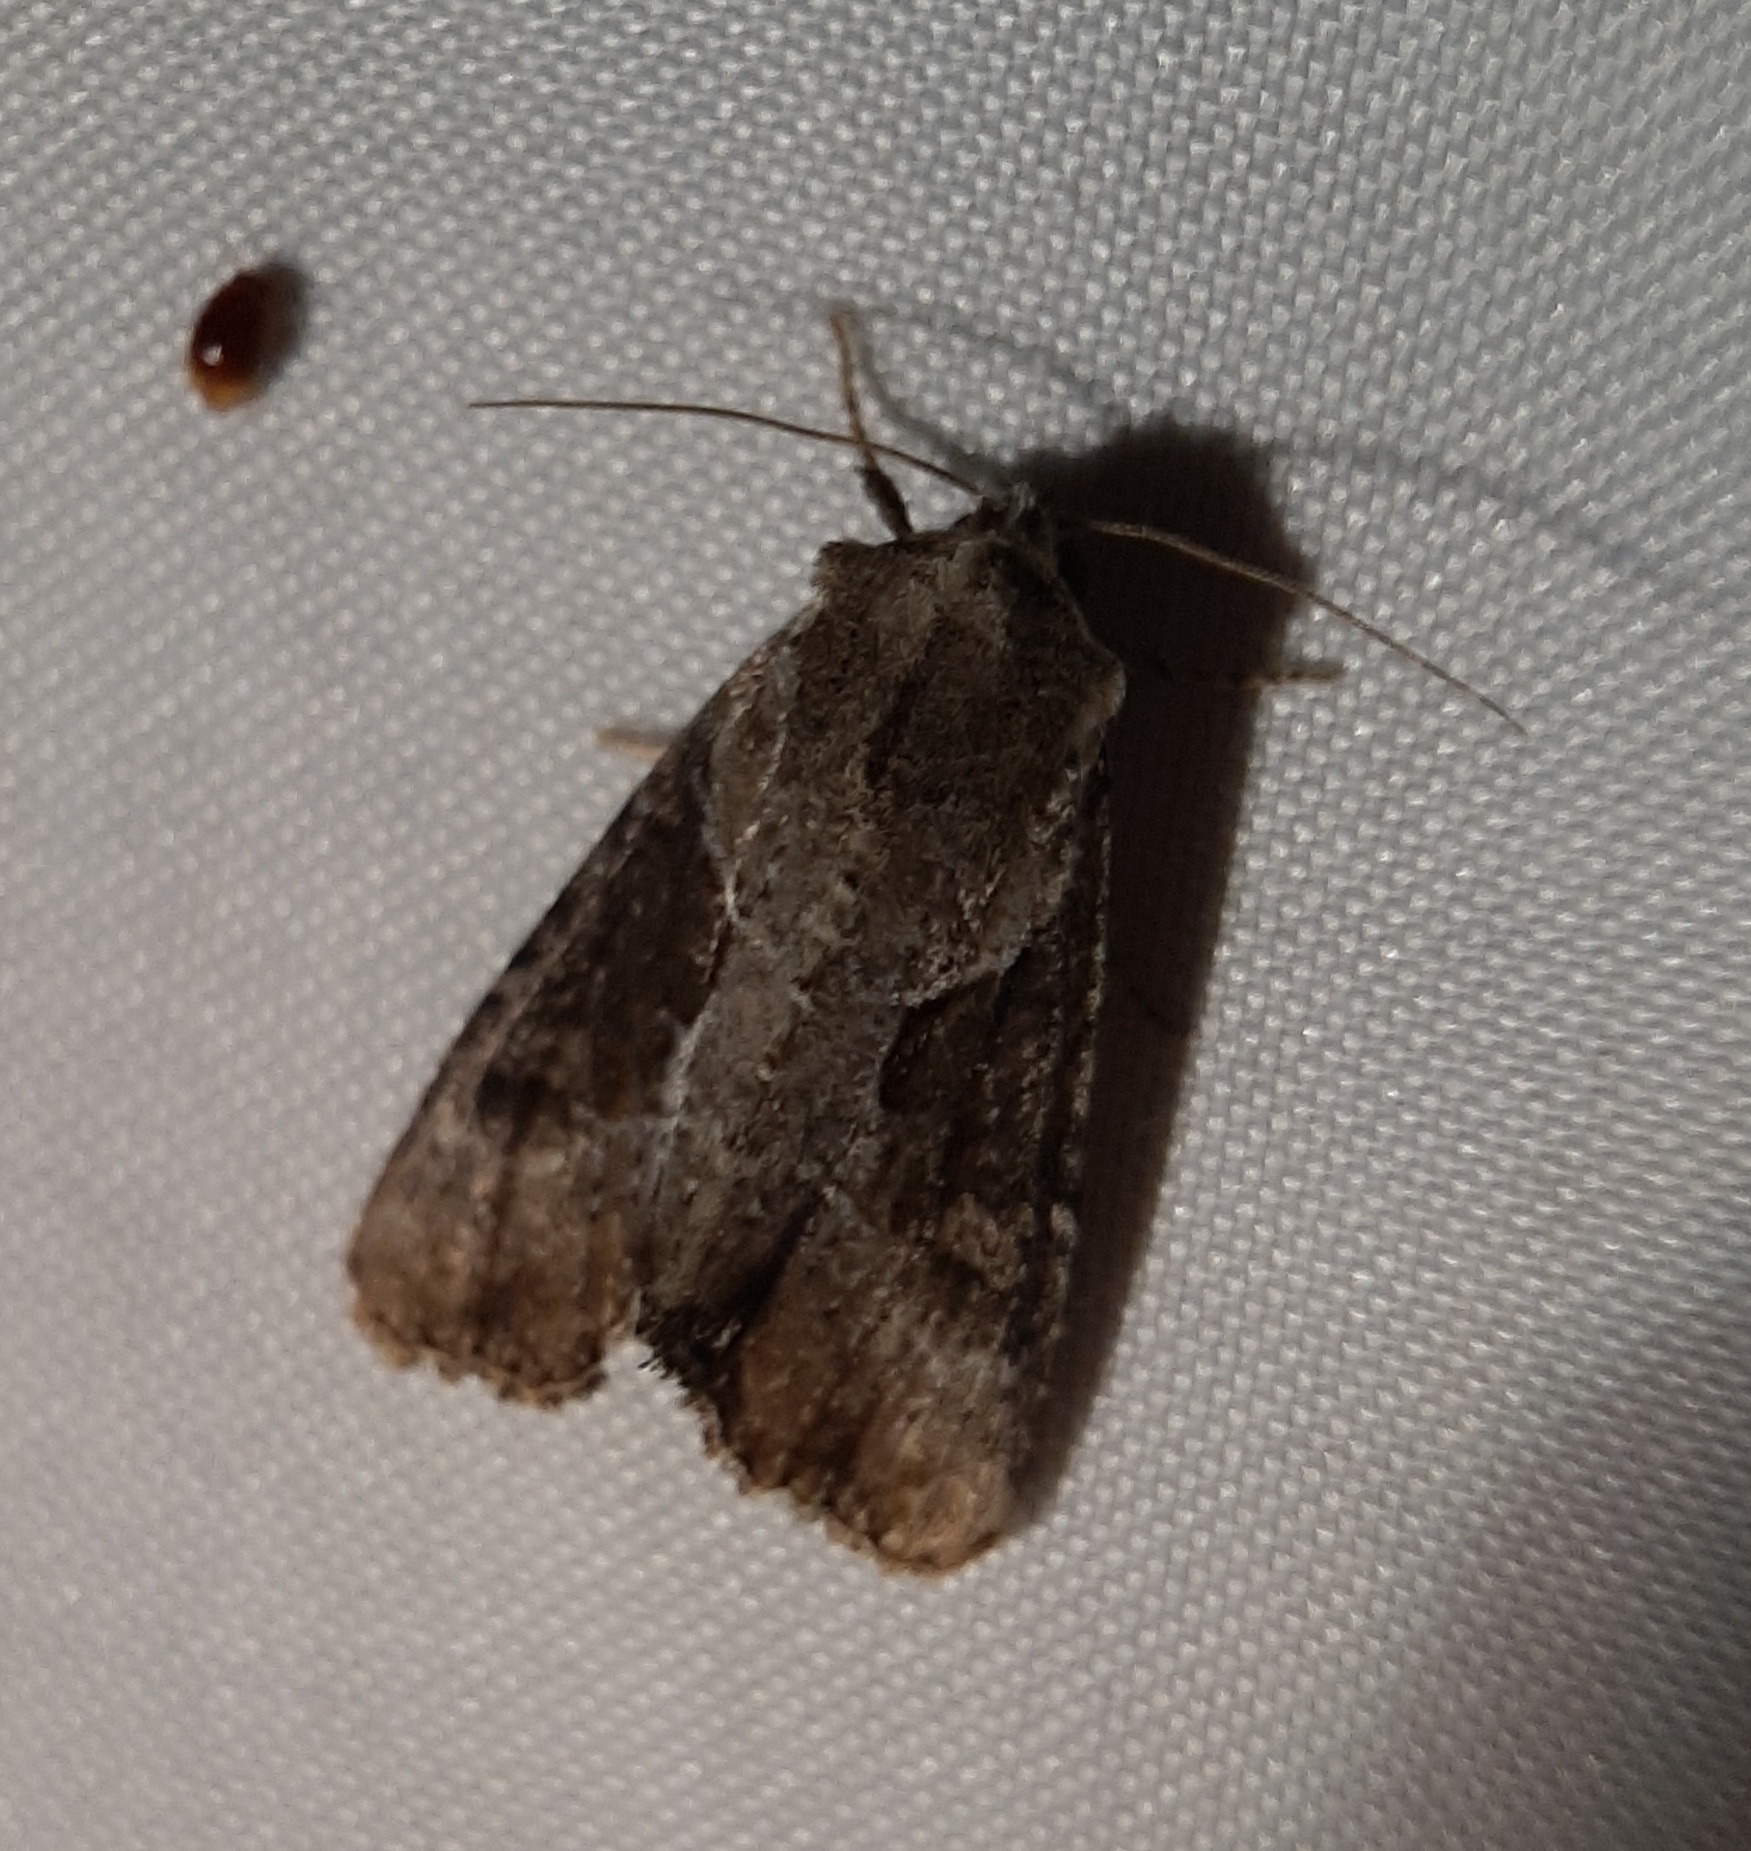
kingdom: Animalia
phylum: Arthropoda
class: Insecta
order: Lepidoptera
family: Noctuidae
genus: Lateroligia
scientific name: Lateroligia ophiogramma
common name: Double lobed
